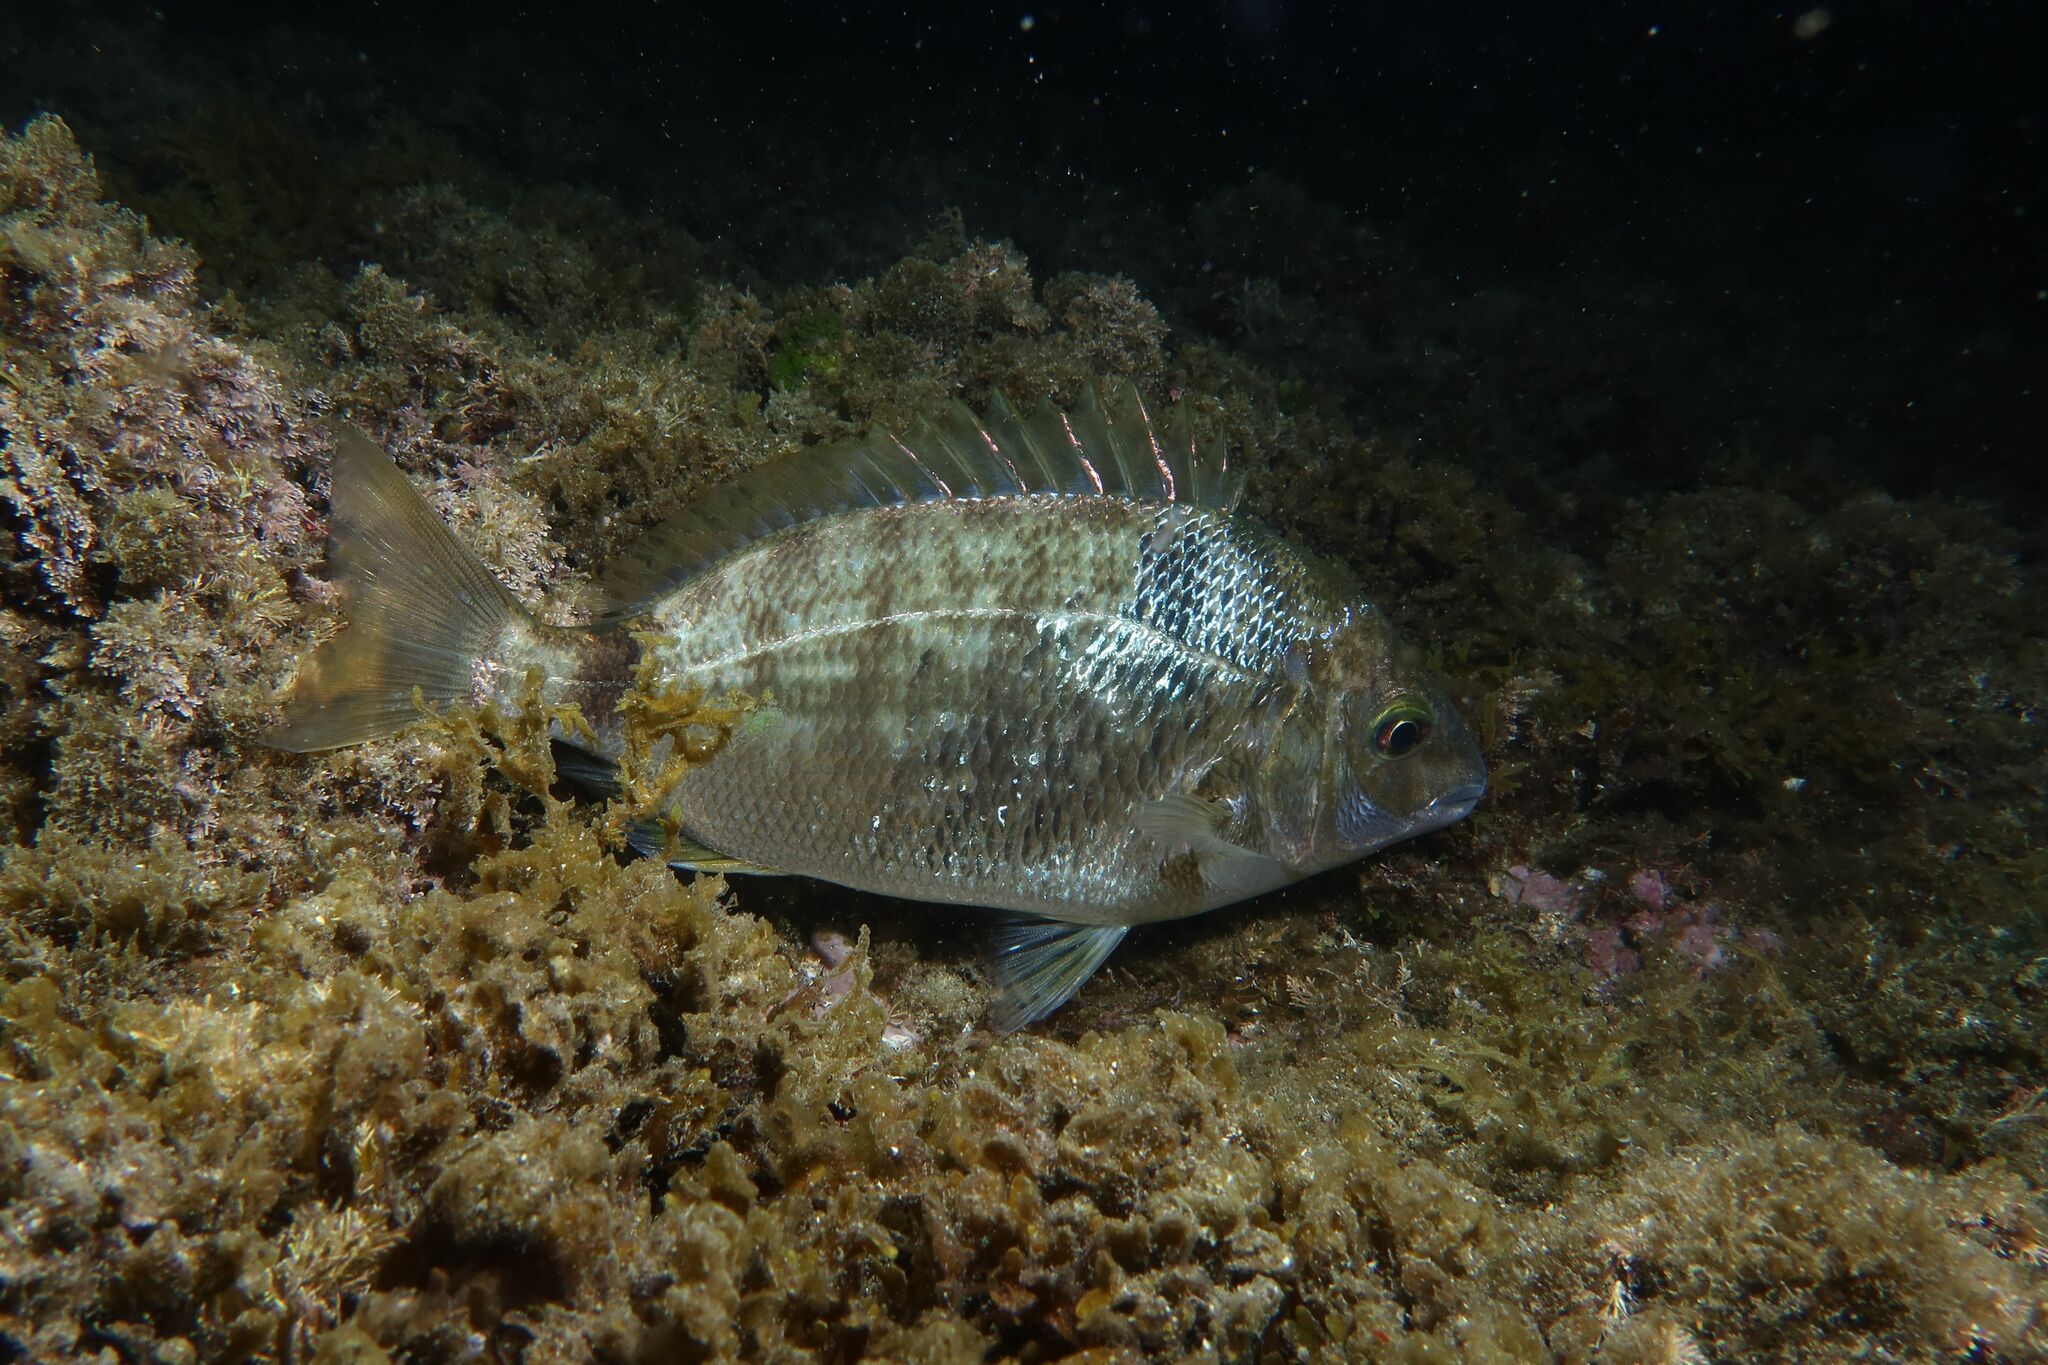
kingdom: Animalia
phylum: Chordata
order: Perciformes
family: Sparidae
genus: Diplodus
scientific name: Diplodus annularis
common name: Annular seabream
